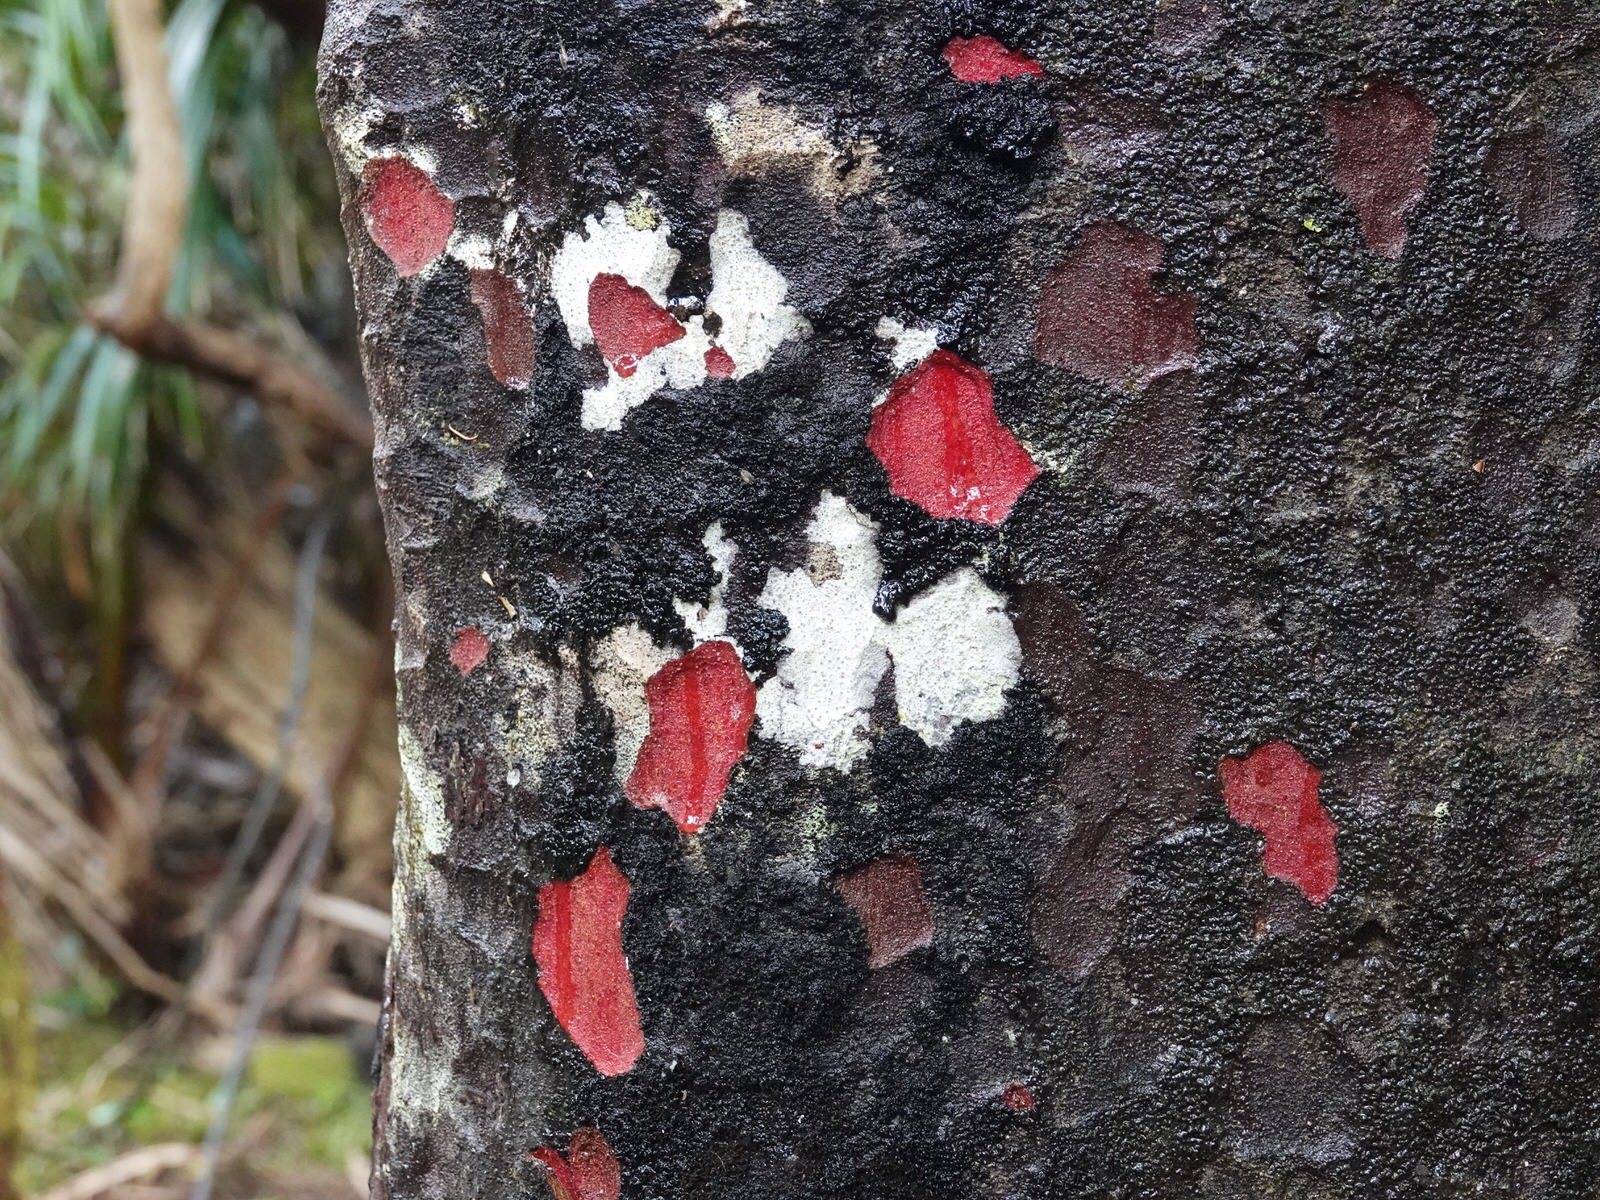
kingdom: Plantae
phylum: Tracheophyta
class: Pinopsida
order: Pinales
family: Podocarpaceae
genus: Prumnopitys
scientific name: Prumnopitys taxifolia
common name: Matai
